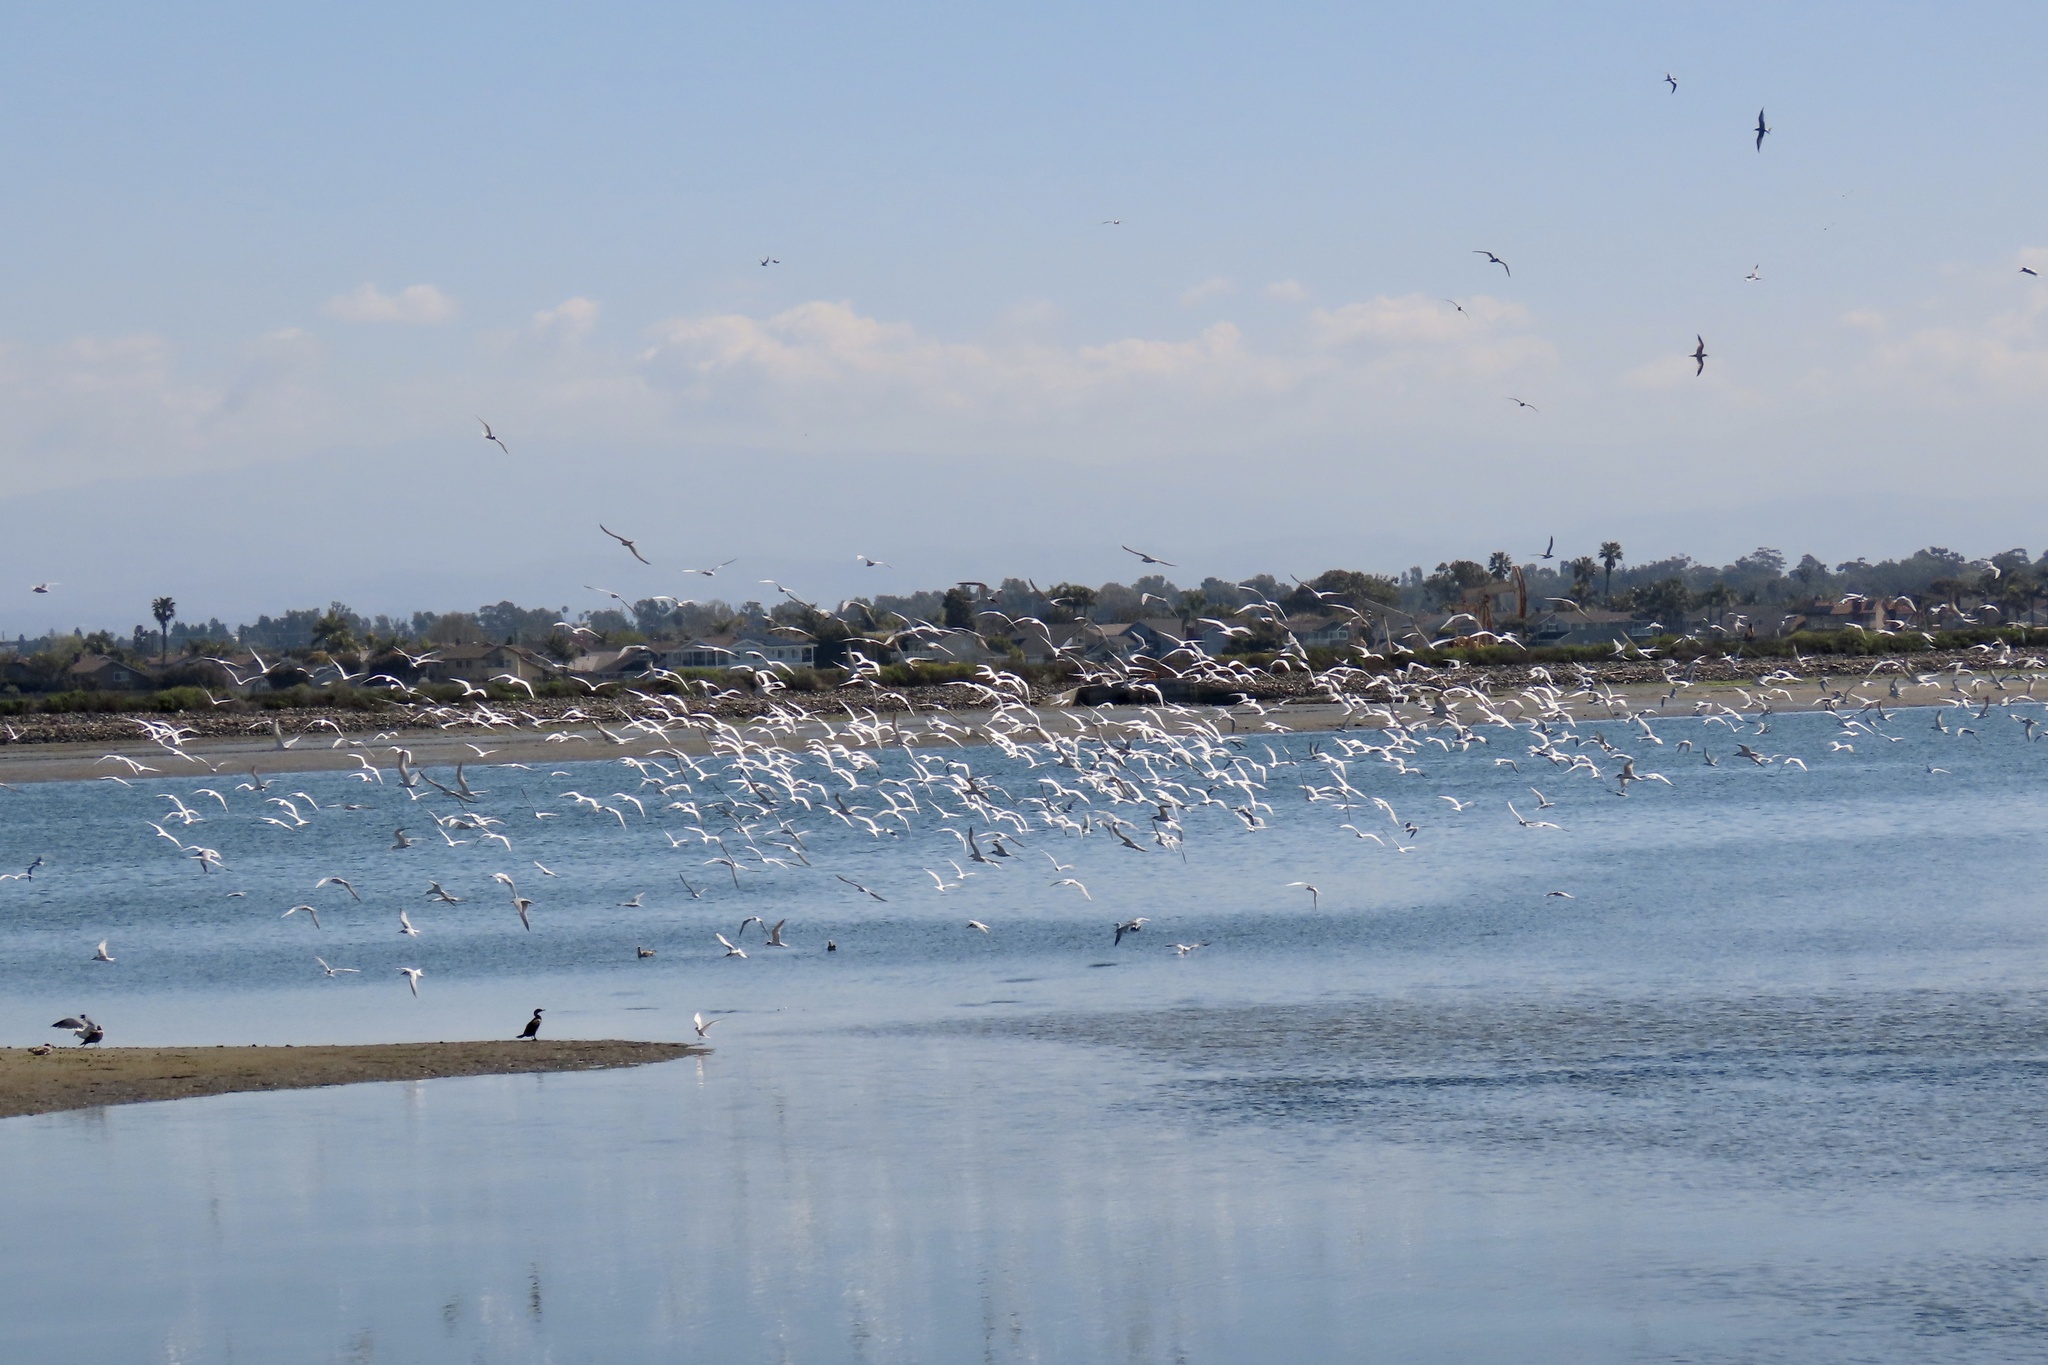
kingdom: Animalia
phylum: Chordata
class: Aves
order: Charadriiformes
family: Laridae
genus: Thalasseus
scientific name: Thalasseus elegans
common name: Elegant tern
